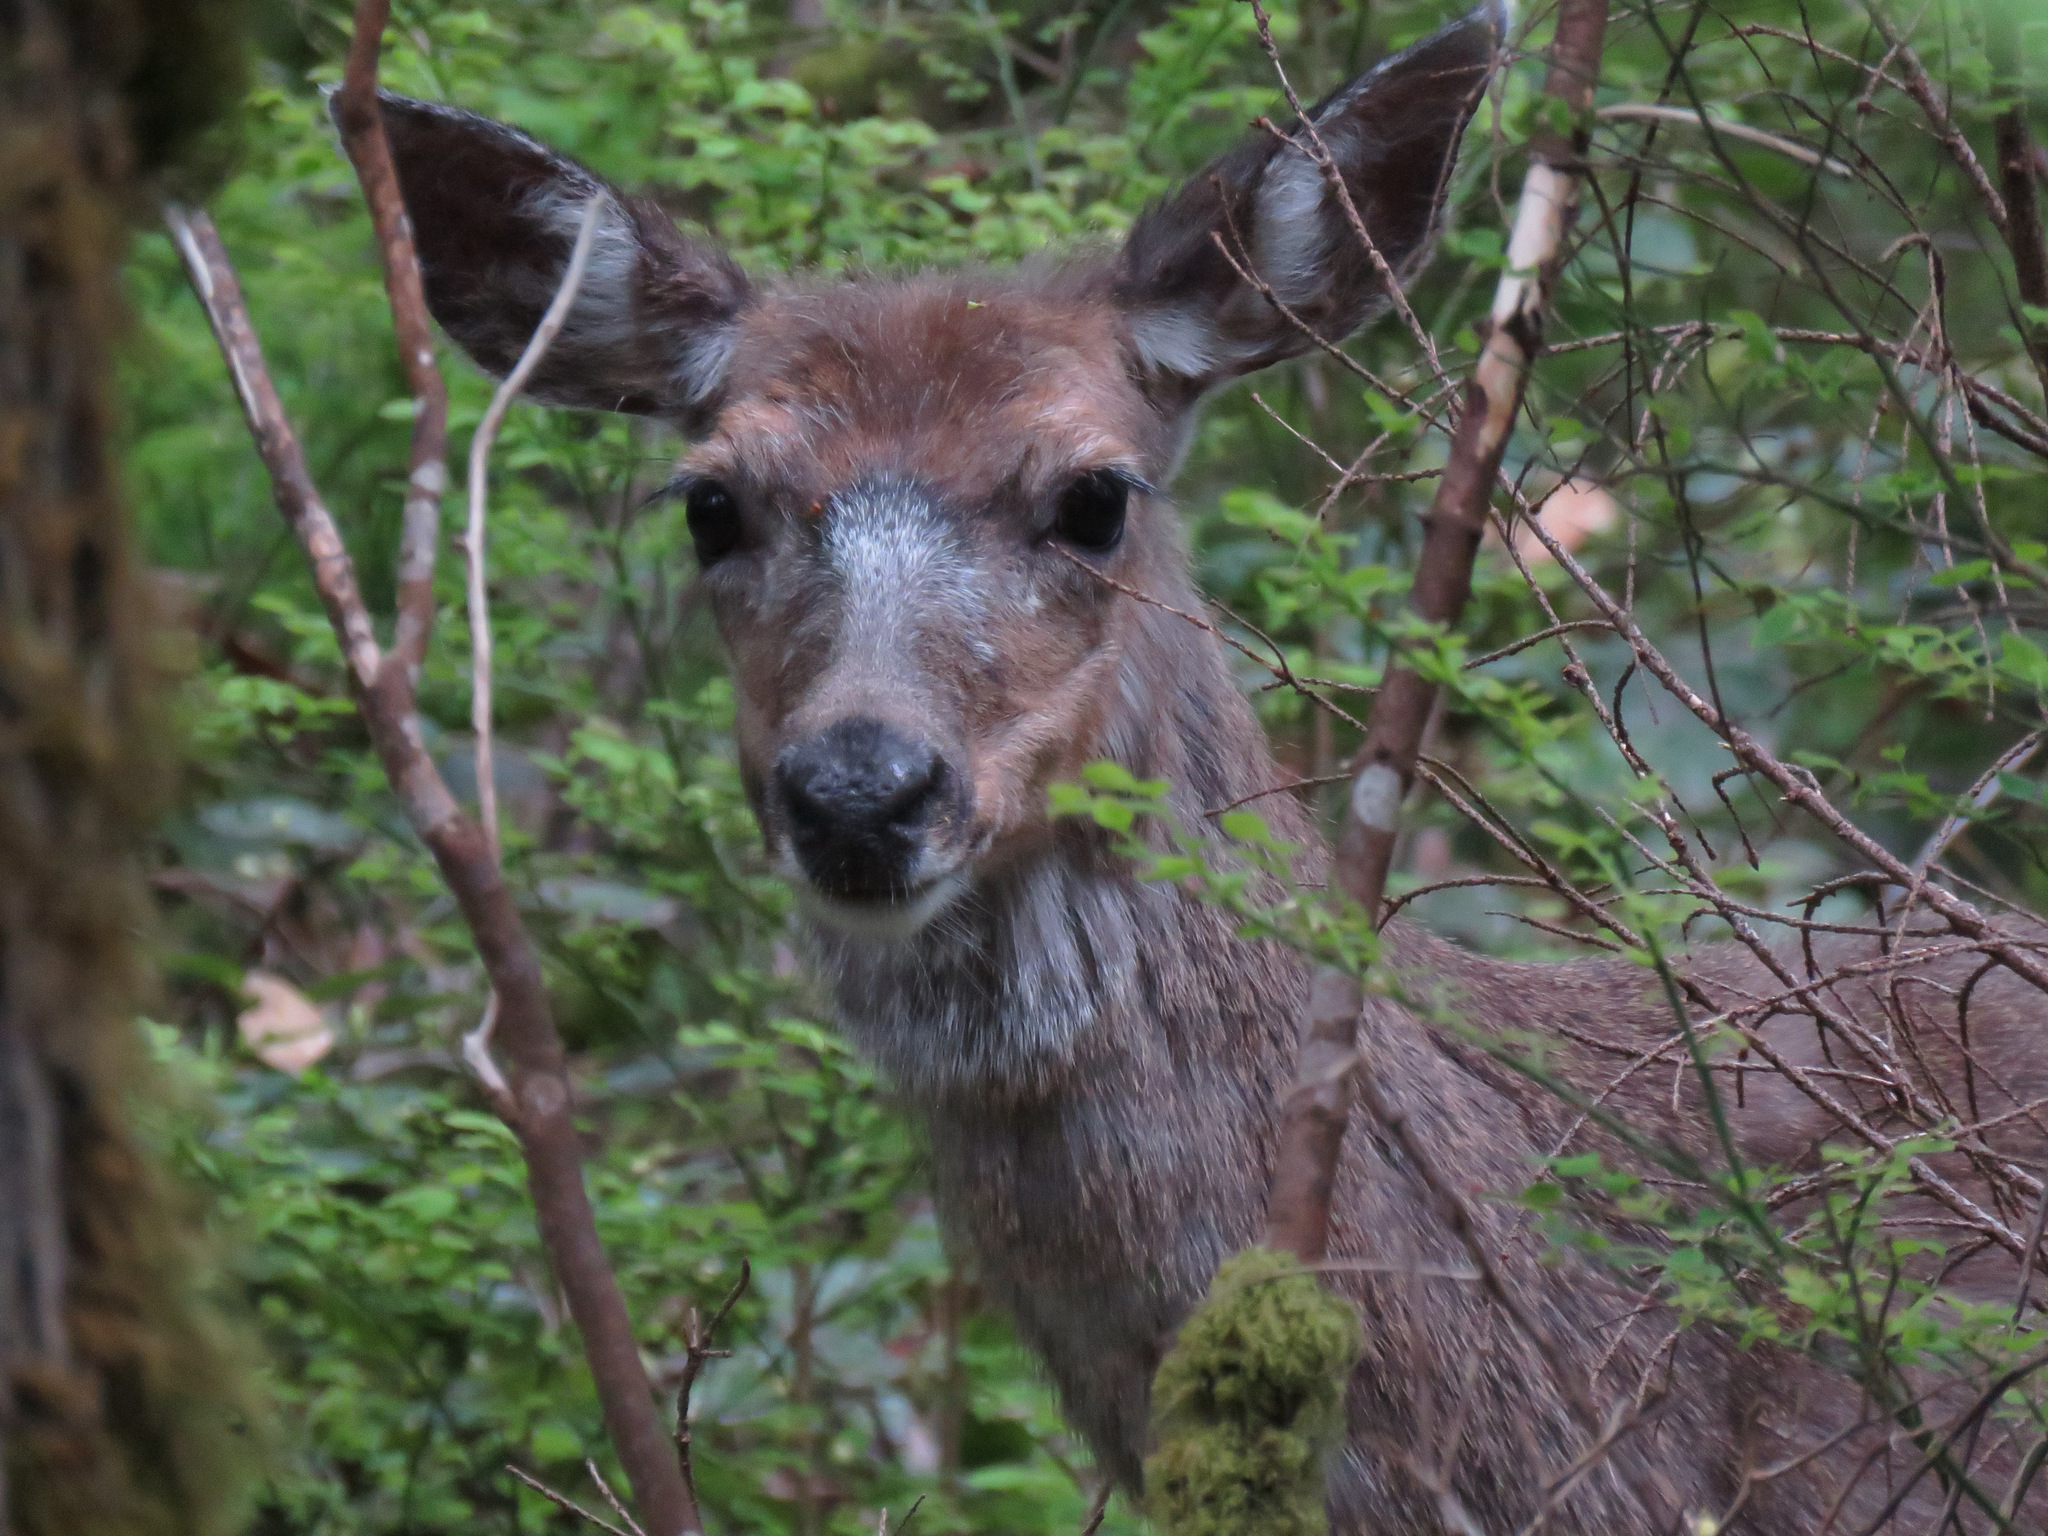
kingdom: Animalia
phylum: Chordata
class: Mammalia
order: Artiodactyla
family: Cervidae
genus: Odocoileus
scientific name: Odocoileus hemionus
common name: Mule deer
